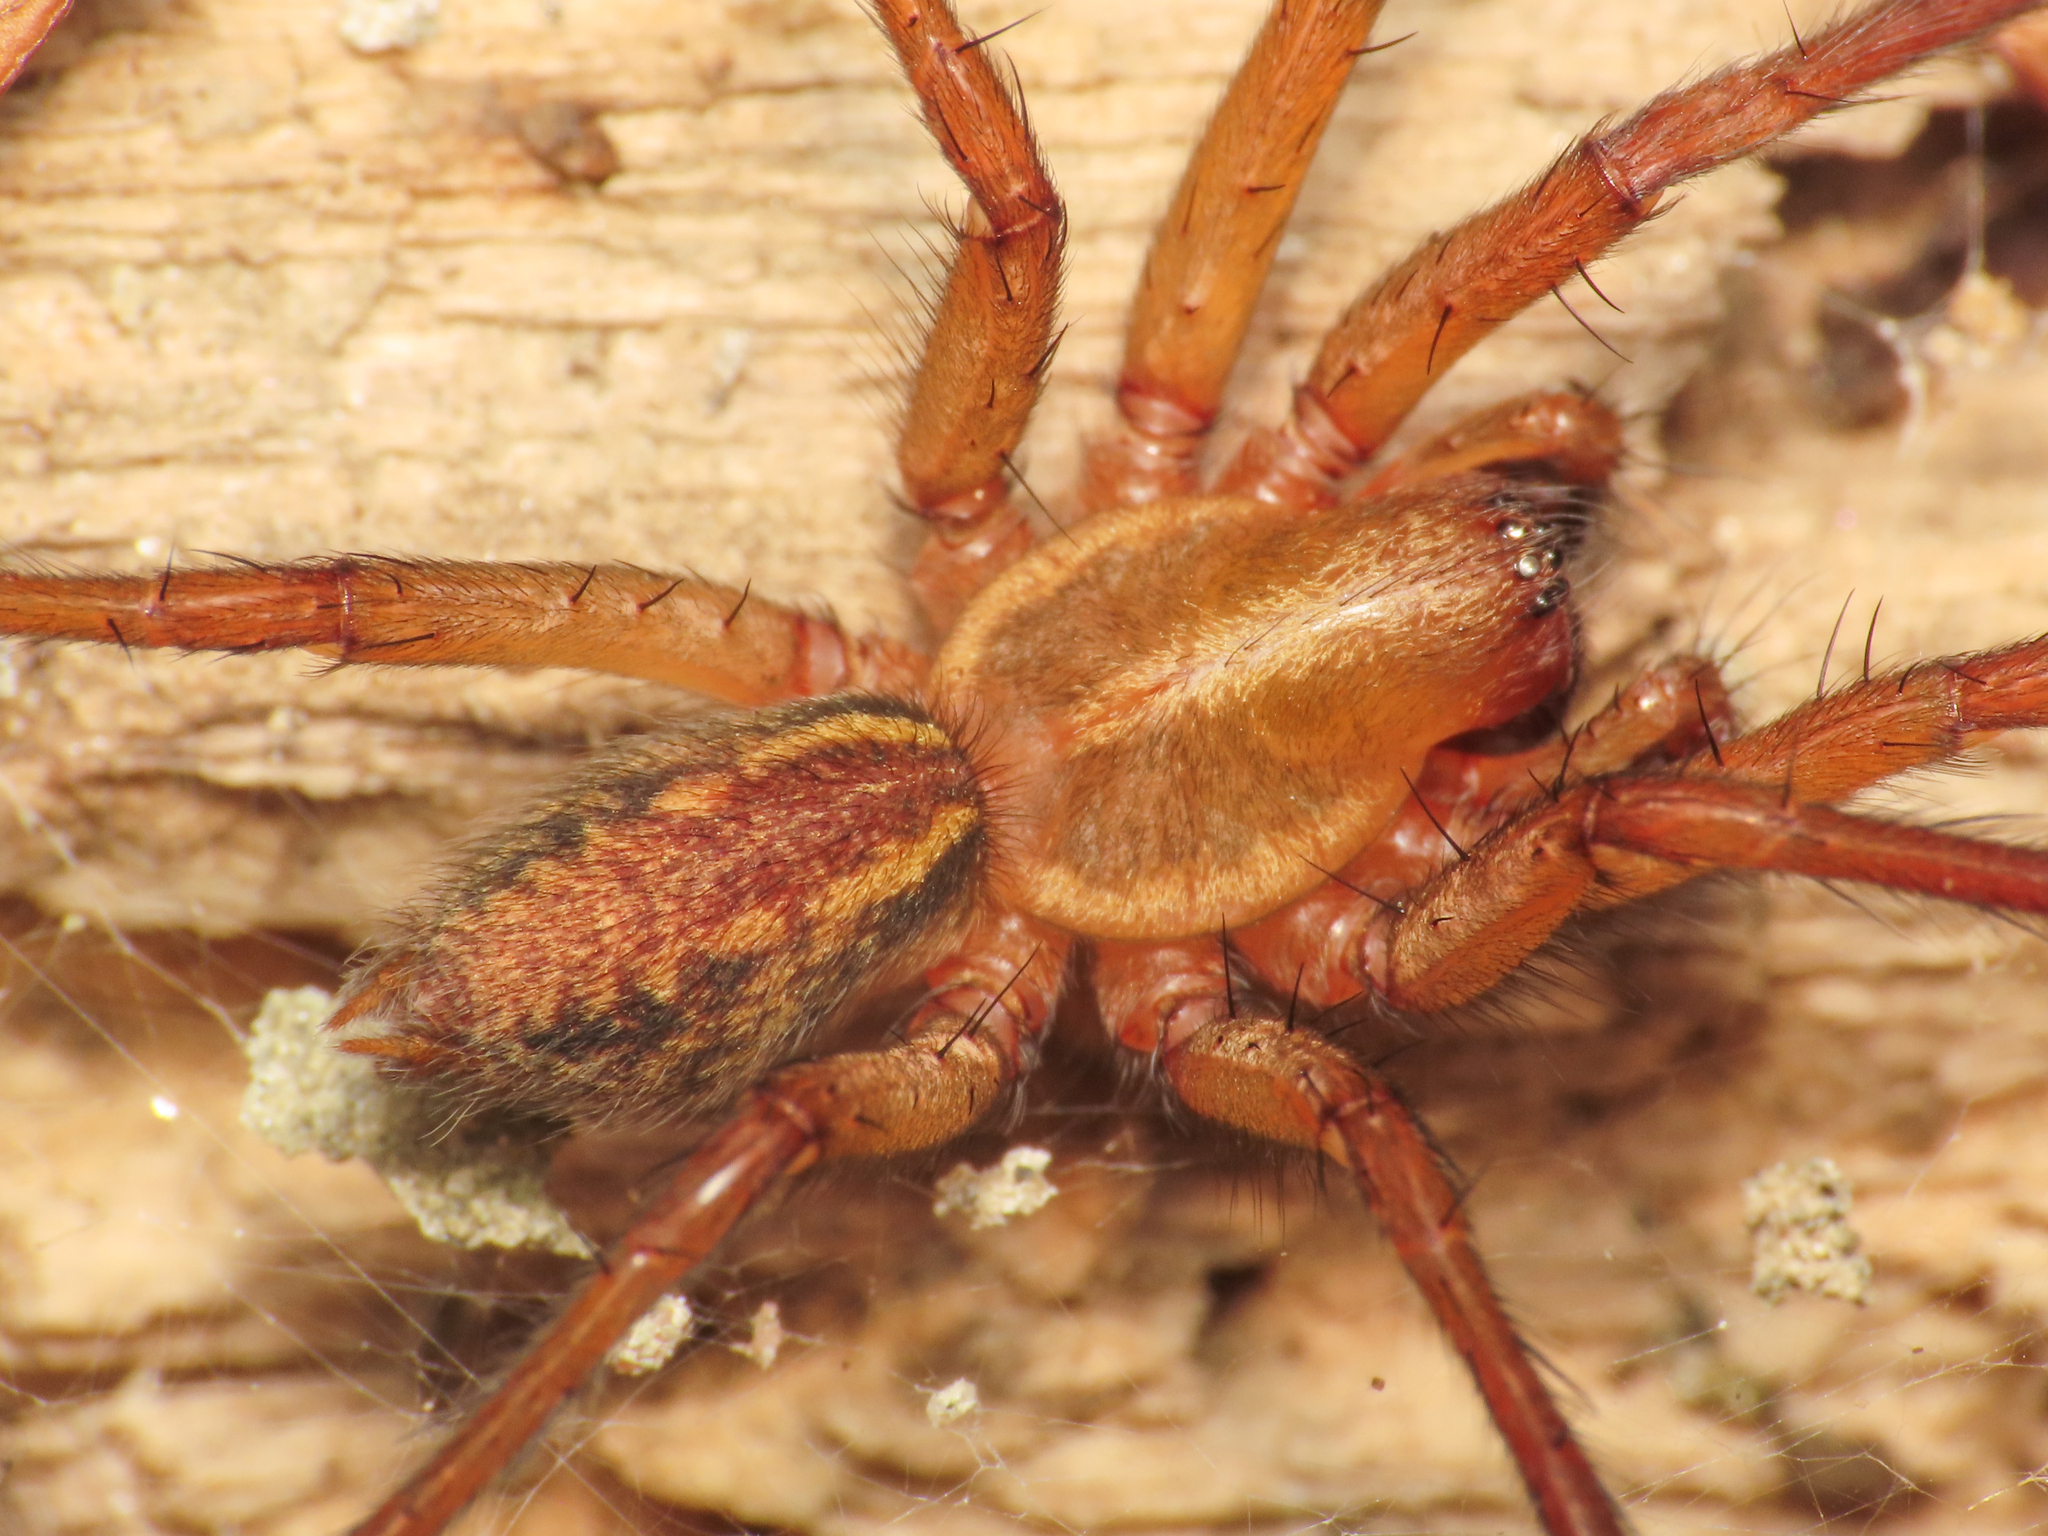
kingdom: Animalia
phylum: Arthropoda
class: Arachnida
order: Araneae
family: Agelenidae
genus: Aterigena
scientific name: Aterigena ligurica
